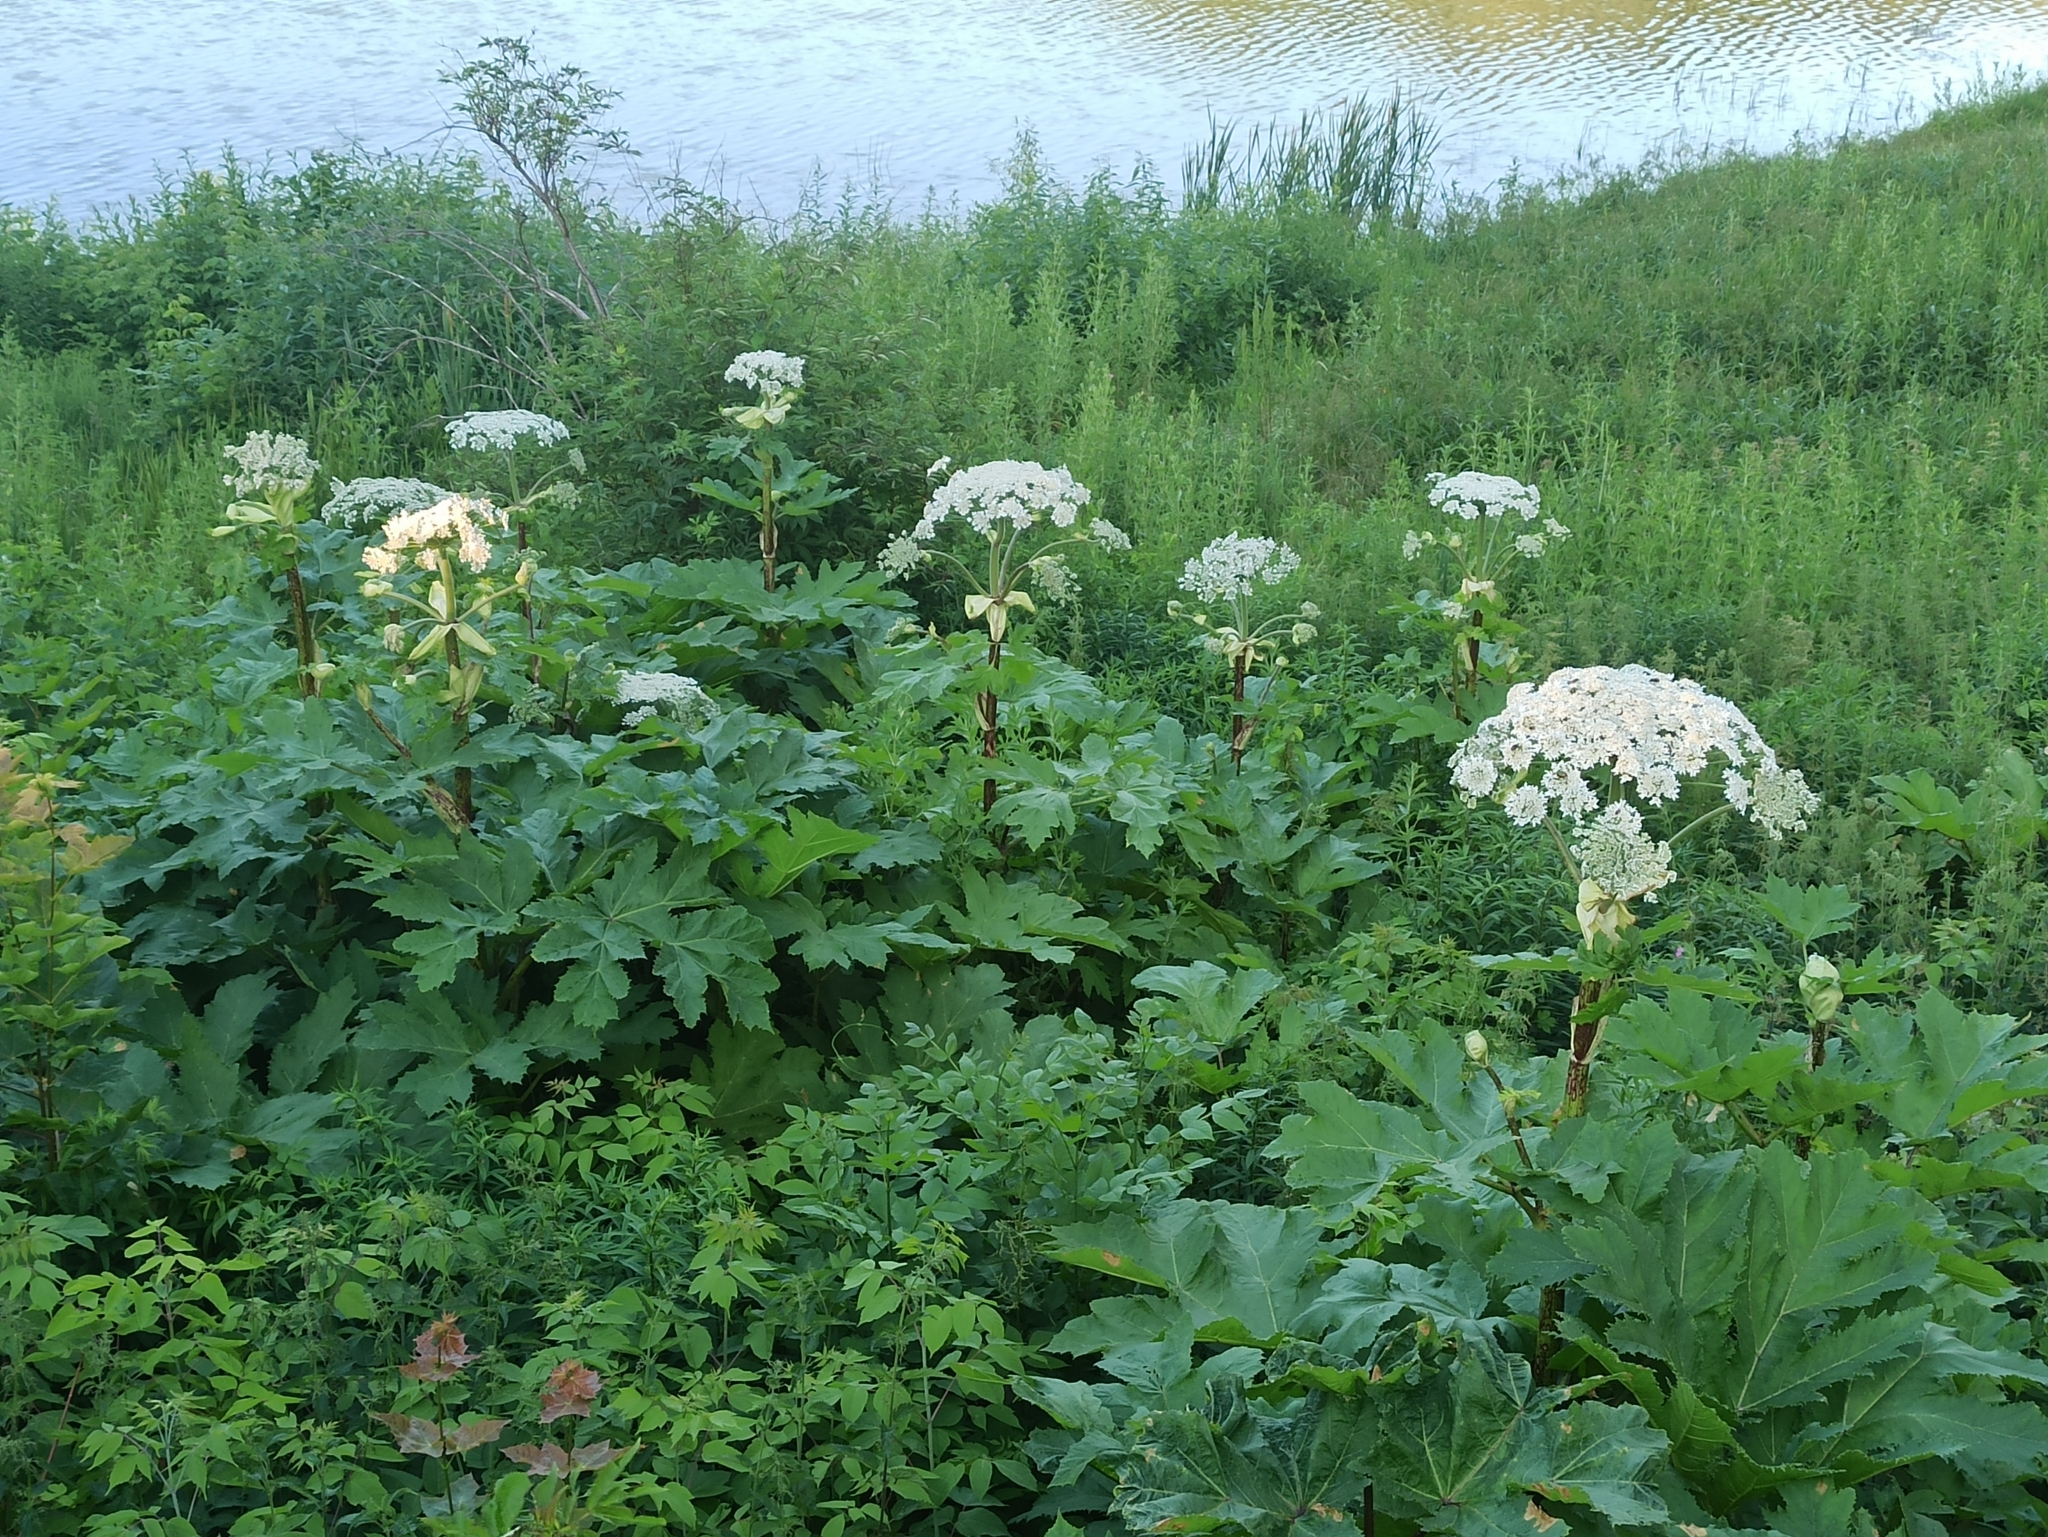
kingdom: Plantae
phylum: Tracheophyta
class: Magnoliopsida
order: Apiales
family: Apiaceae
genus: Heracleum
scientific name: Heracleum sosnowskyi
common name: Sosnowsky's hogweed
